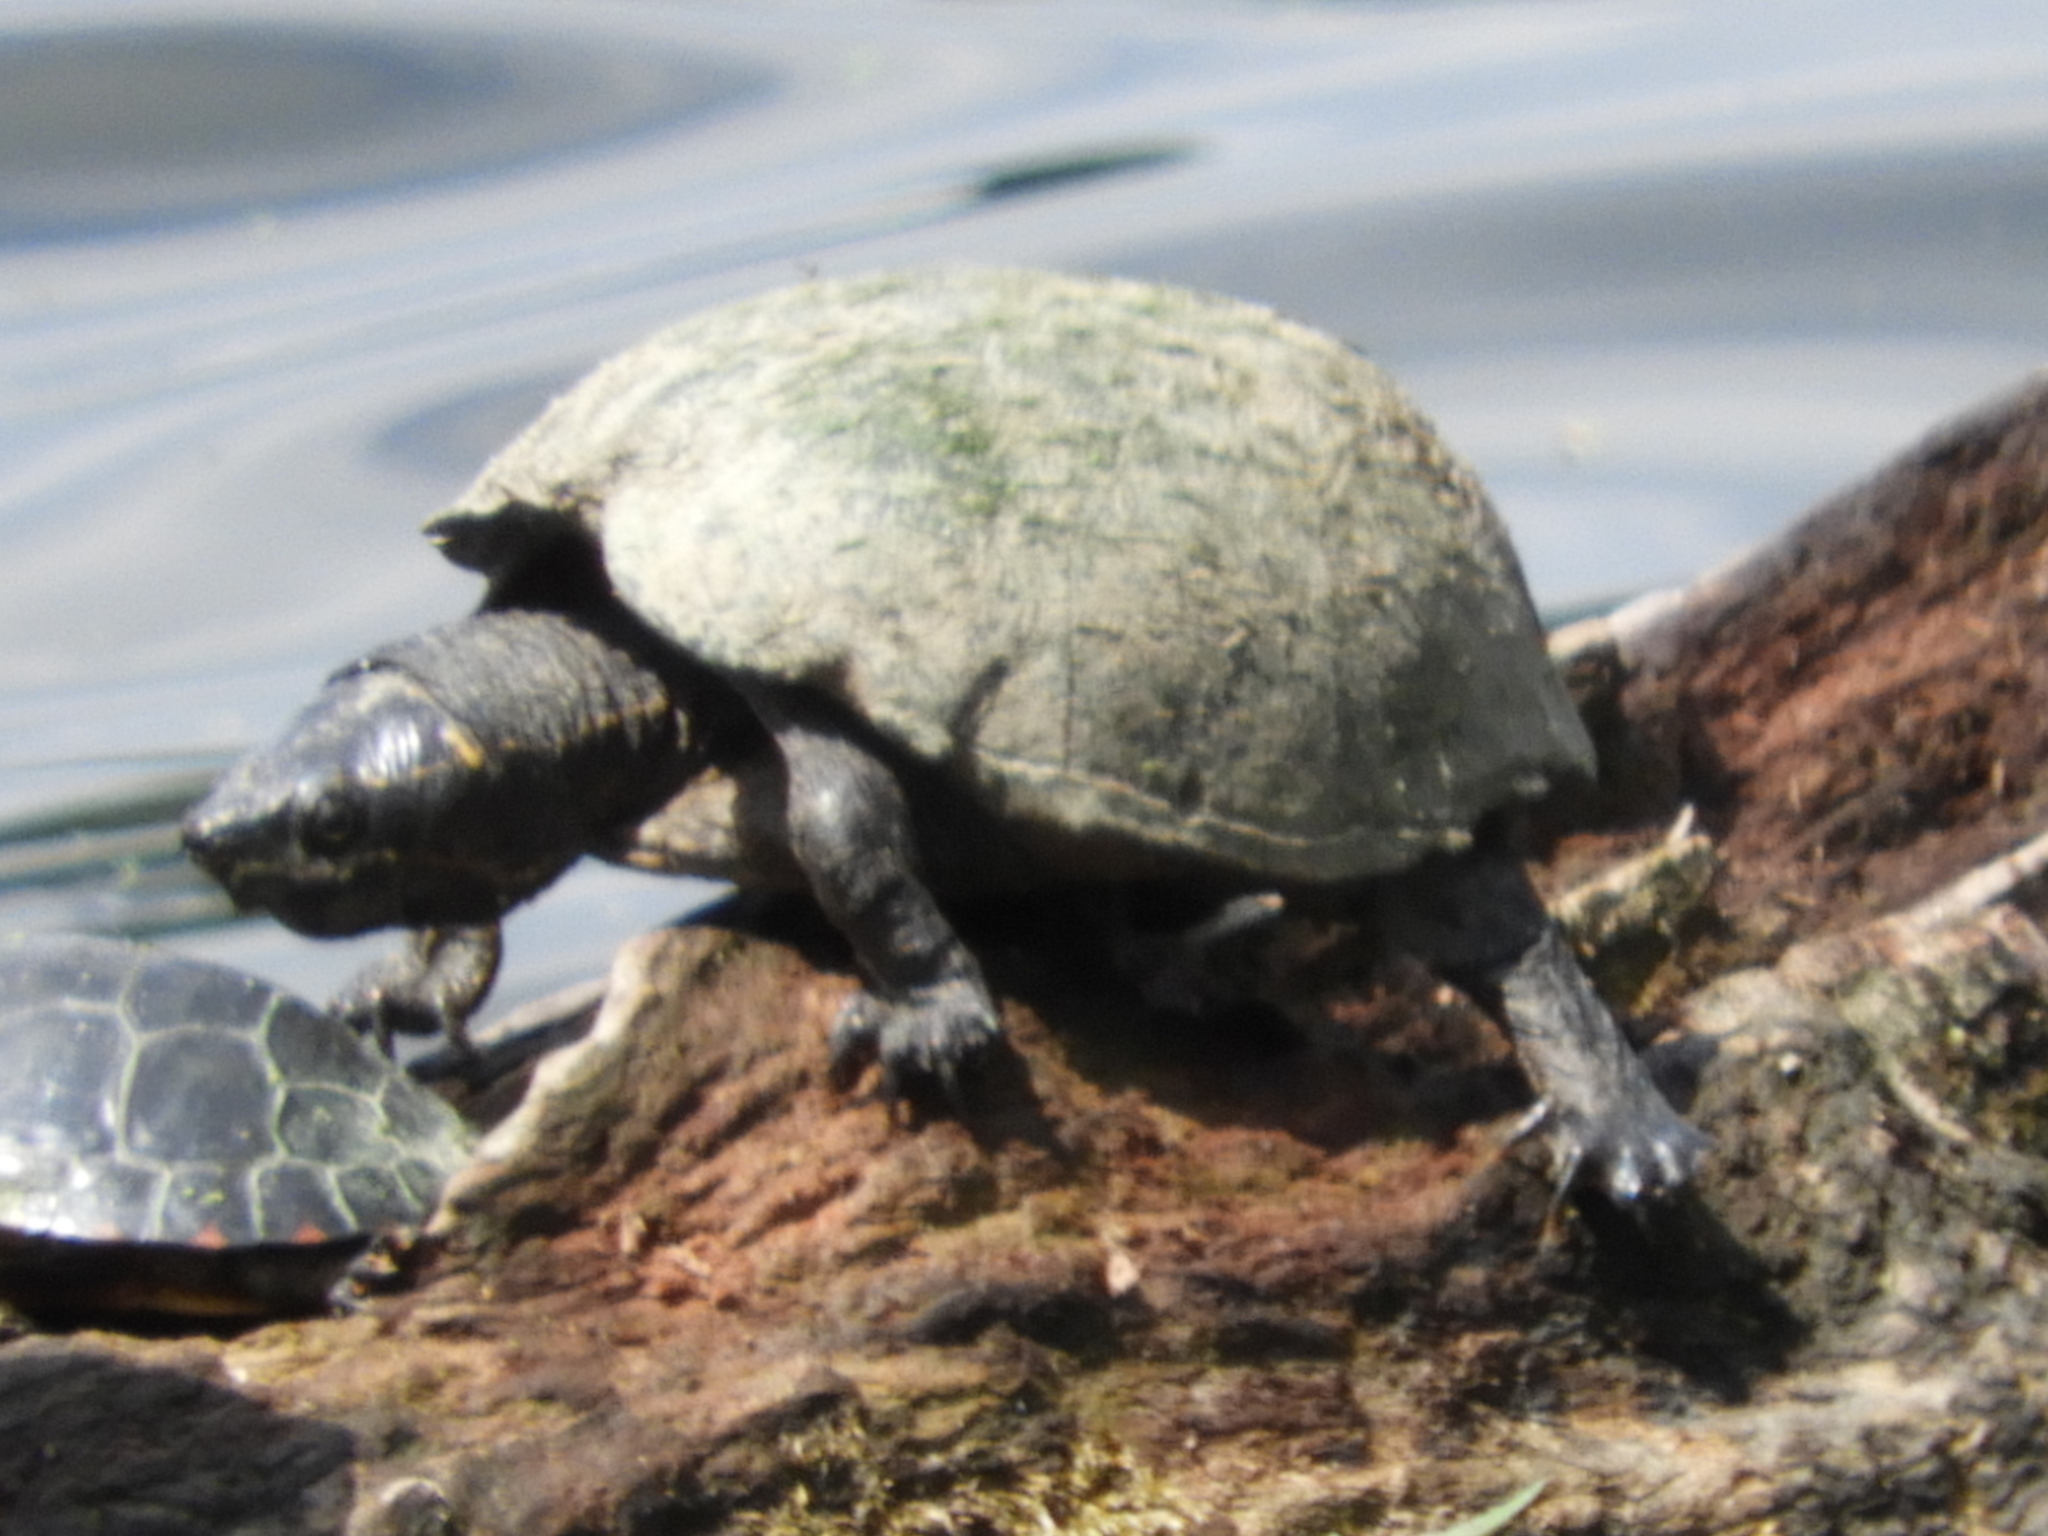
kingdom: Animalia
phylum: Chordata
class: Testudines
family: Kinosternidae
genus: Sternotherus
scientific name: Sternotherus odoratus
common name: Common musk turtle
